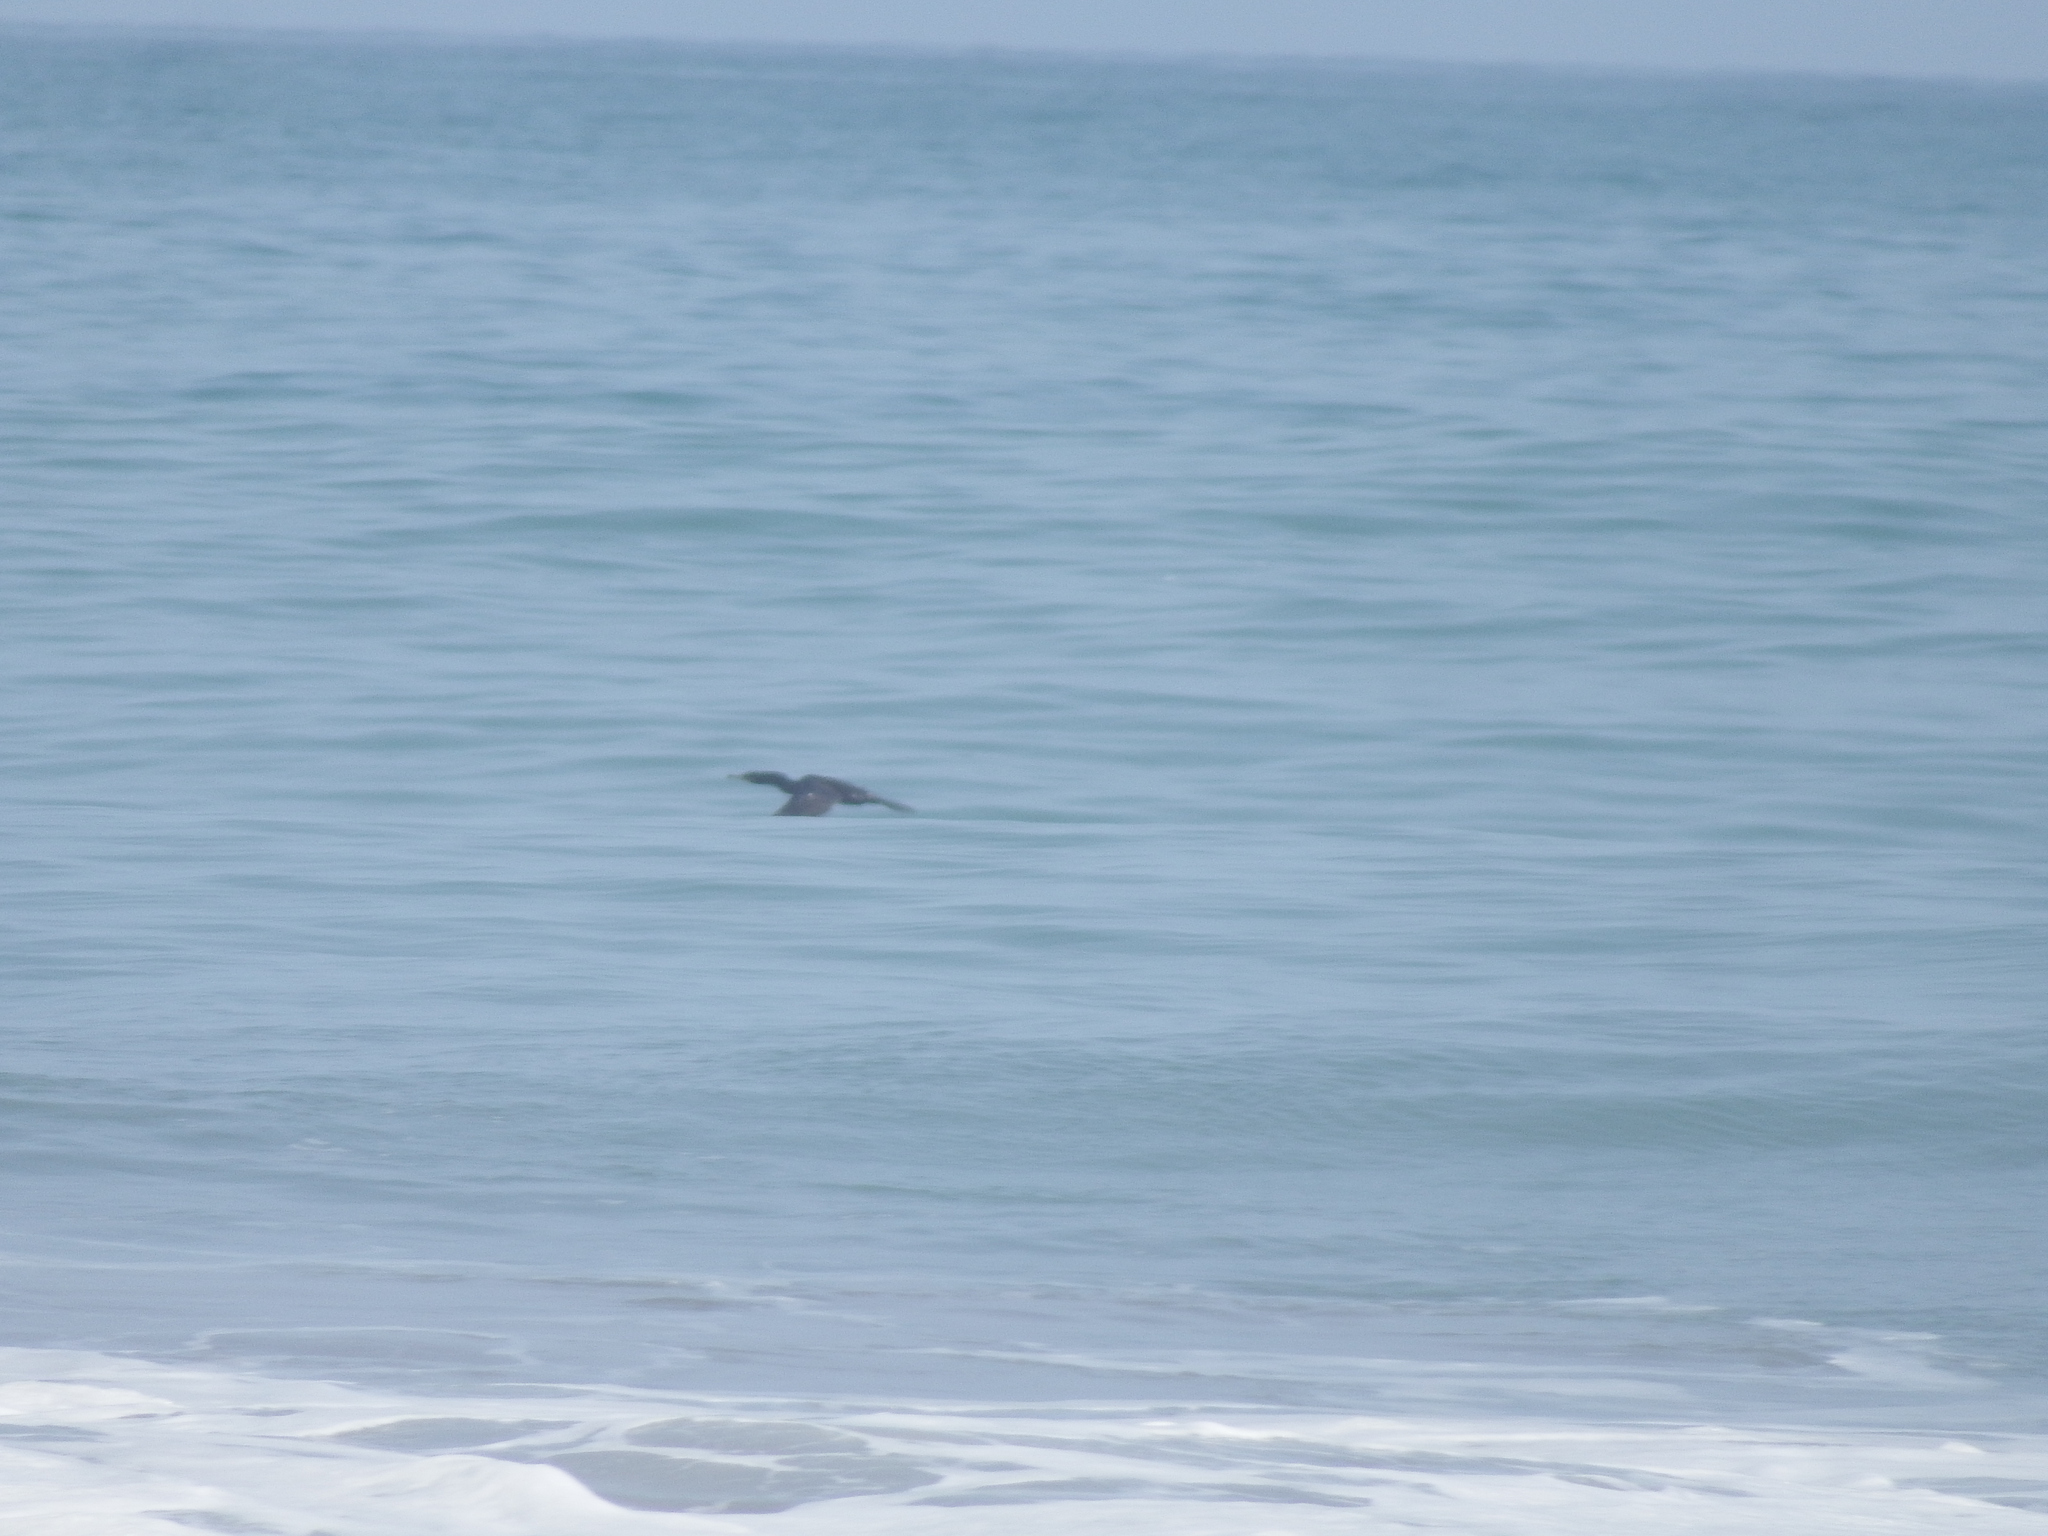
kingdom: Animalia
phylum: Chordata
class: Aves
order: Suliformes
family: Phalacrocoracidae
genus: Phalacrocorax
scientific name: Phalacrocorax brasilianus
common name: Neotropic cormorant
